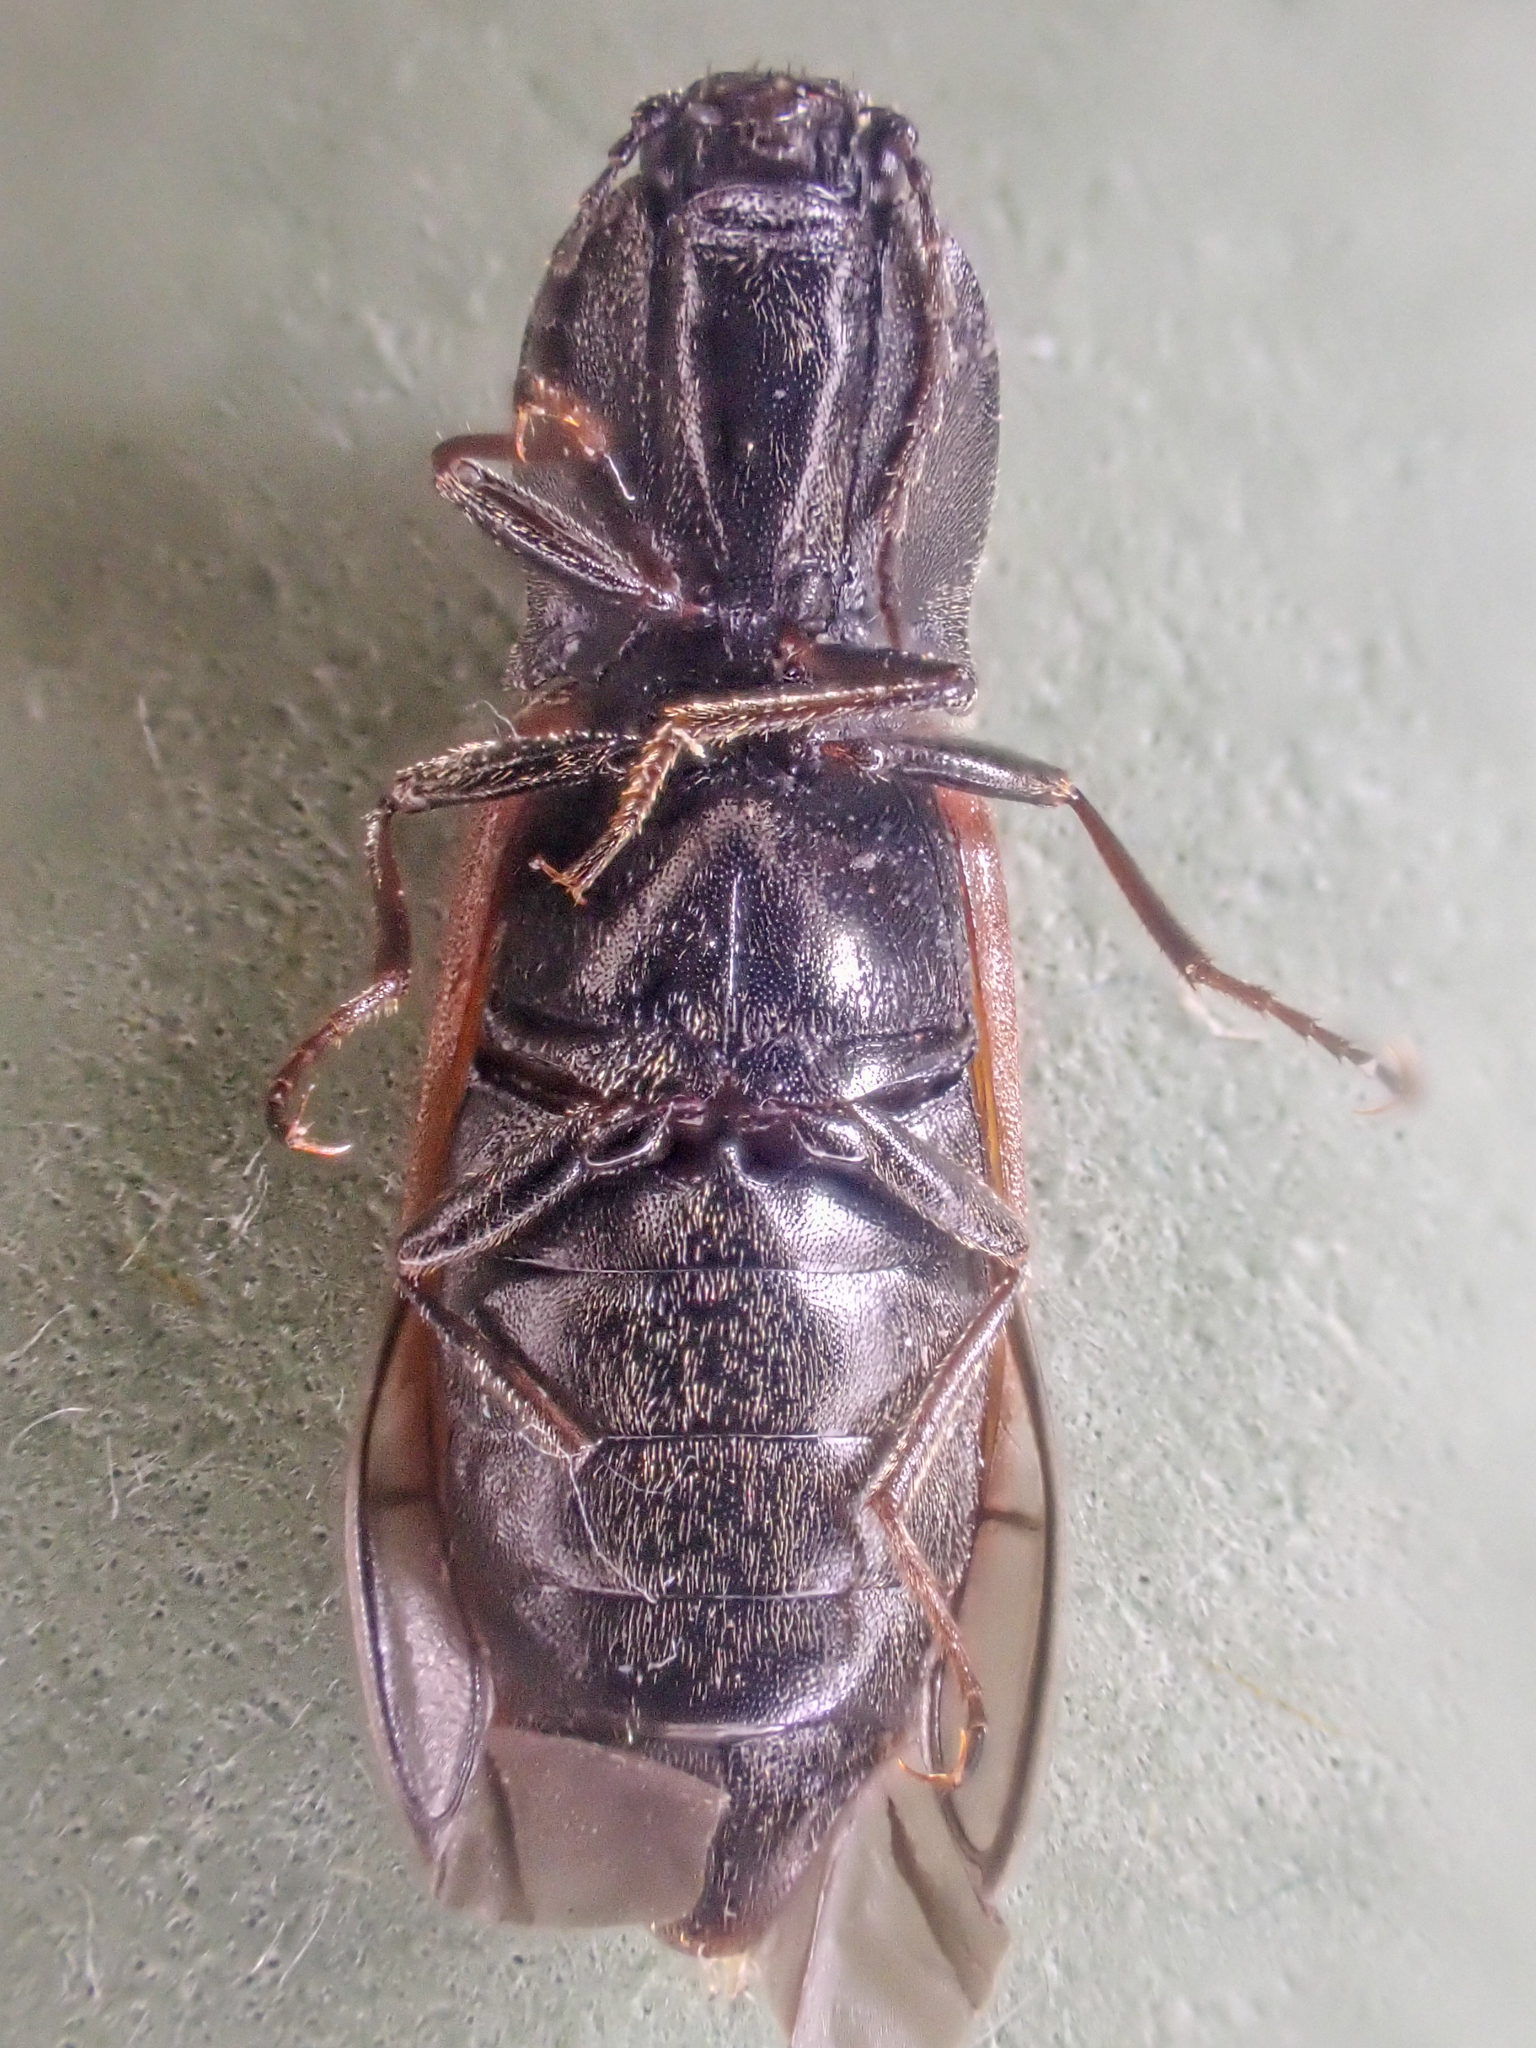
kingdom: Animalia
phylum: Arthropoda
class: Insecta
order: Coleoptera
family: Elateridae
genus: Pseudanostirus
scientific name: Pseudanostirus hoppingi
